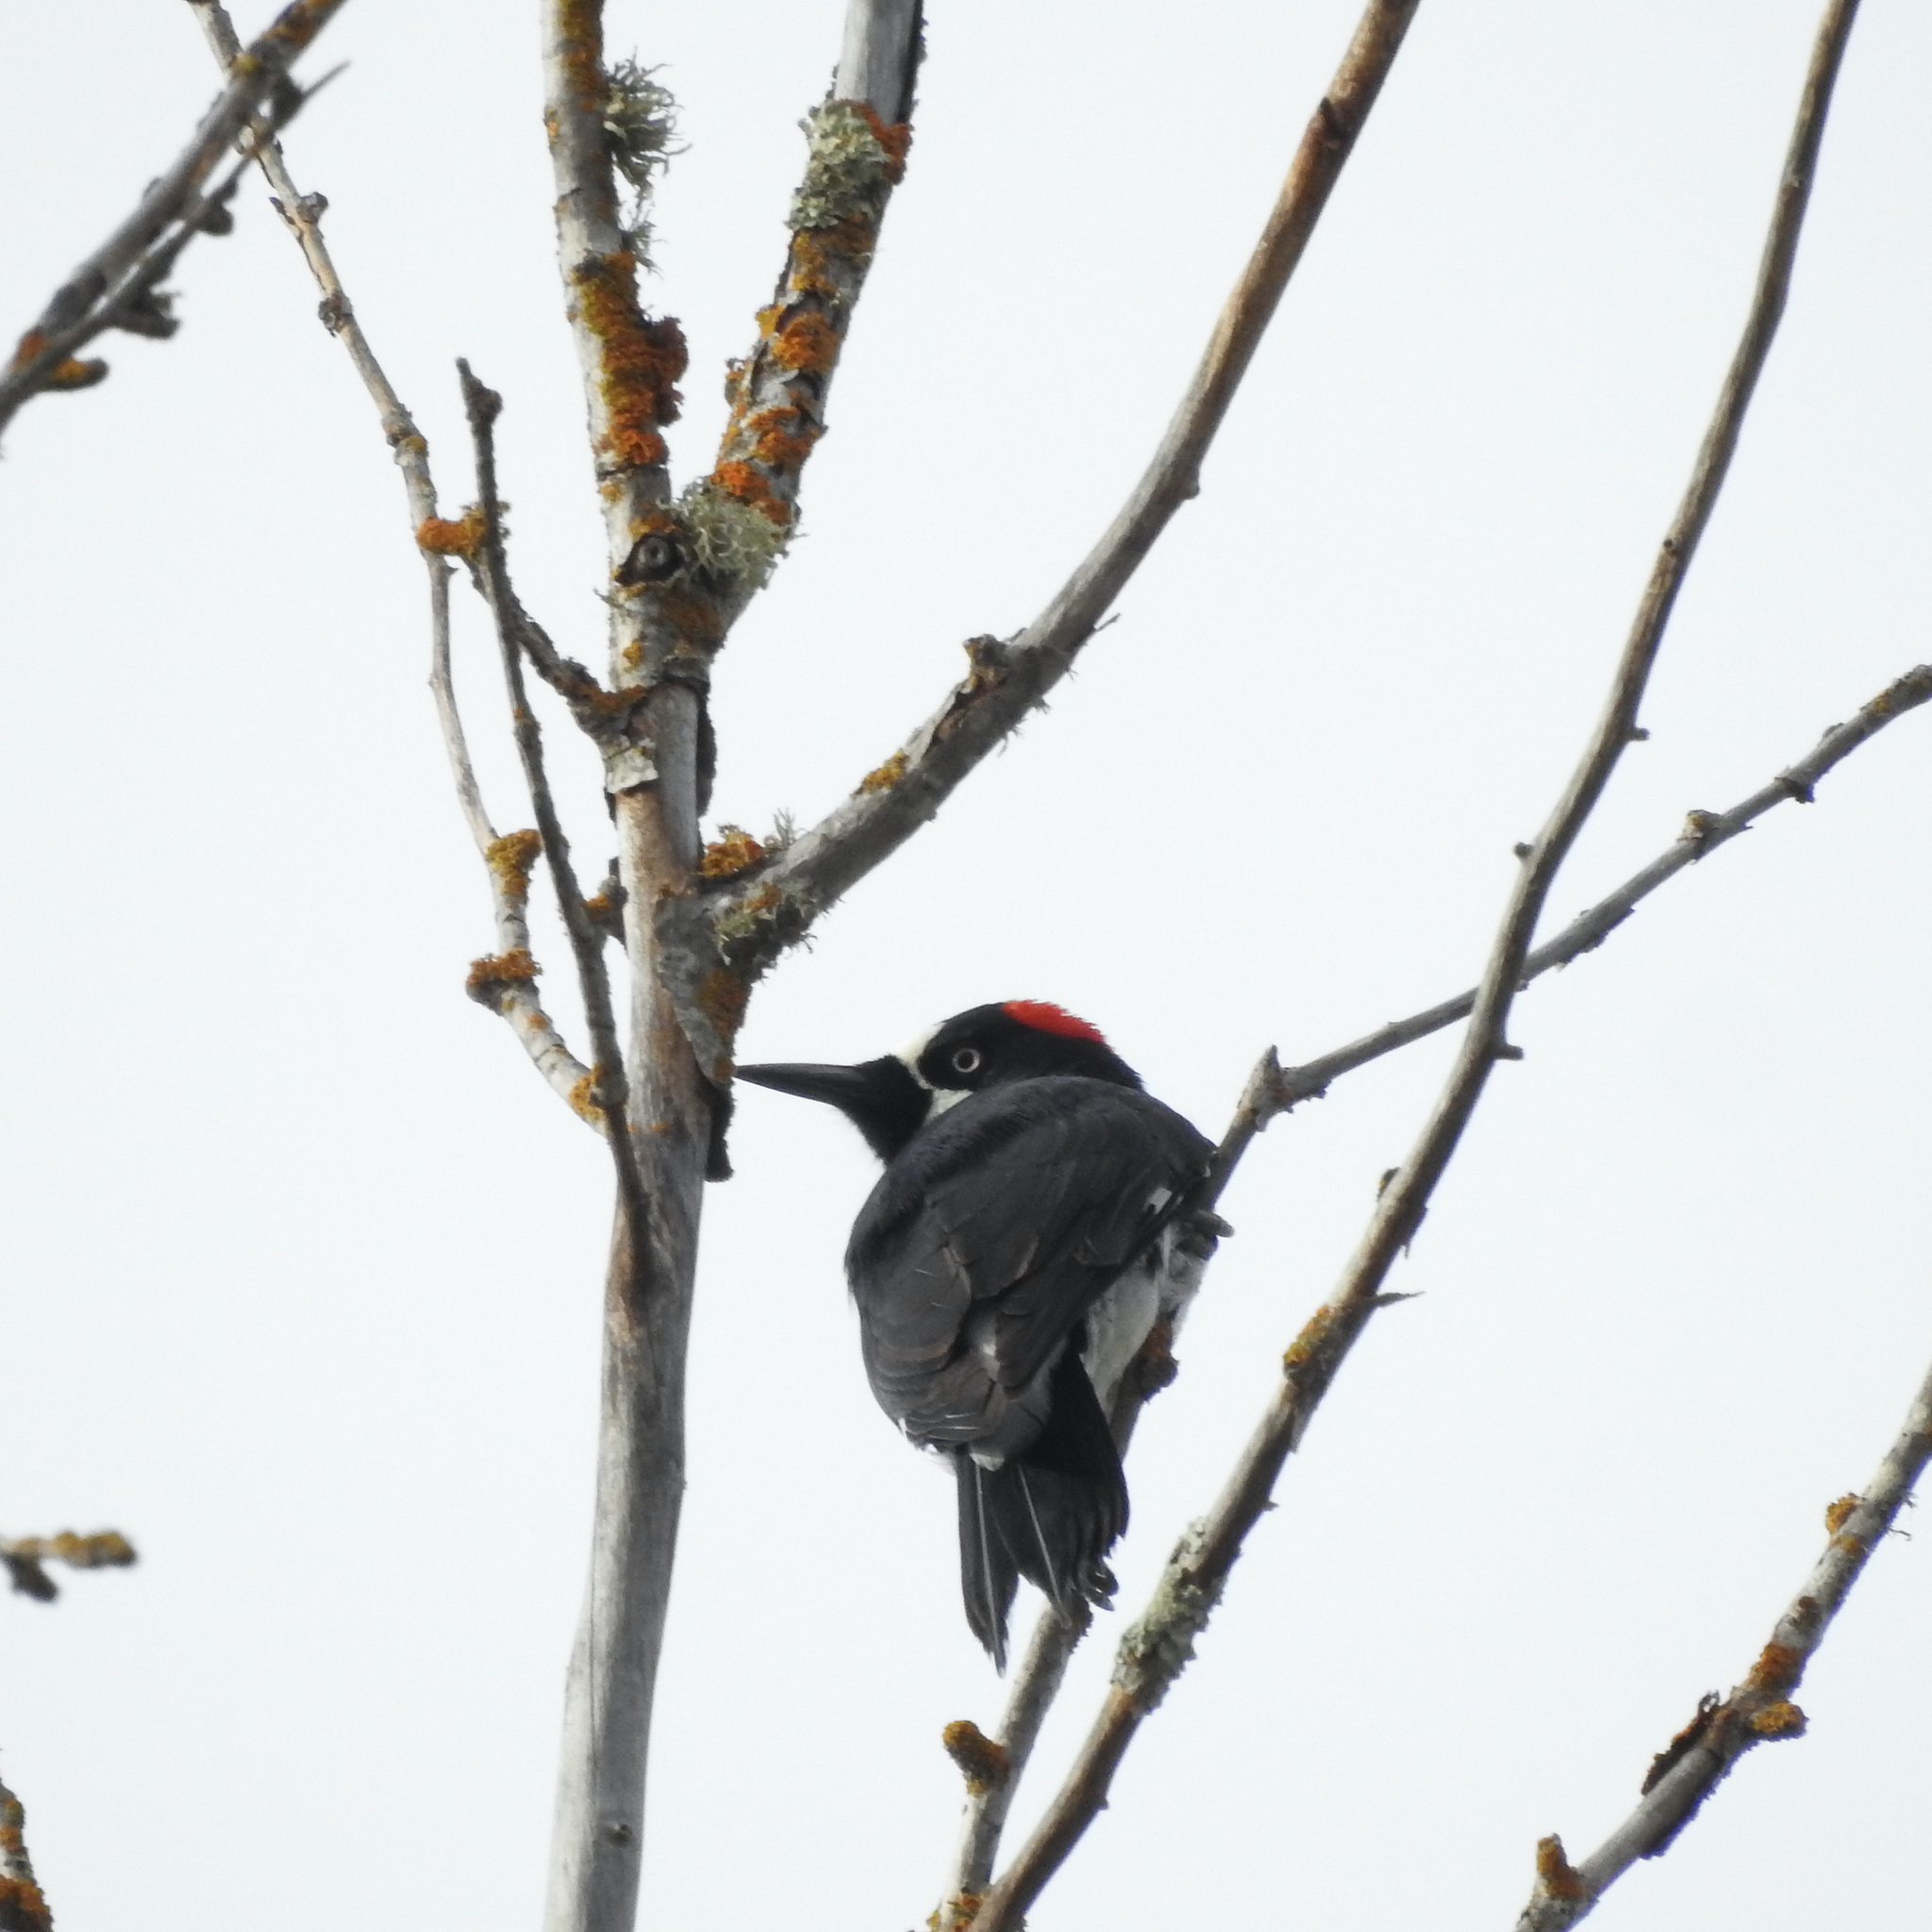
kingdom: Animalia
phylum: Chordata
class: Aves
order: Piciformes
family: Picidae
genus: Melanerpes
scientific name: Melanerpes formicivorus
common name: Acorn woodpecker
